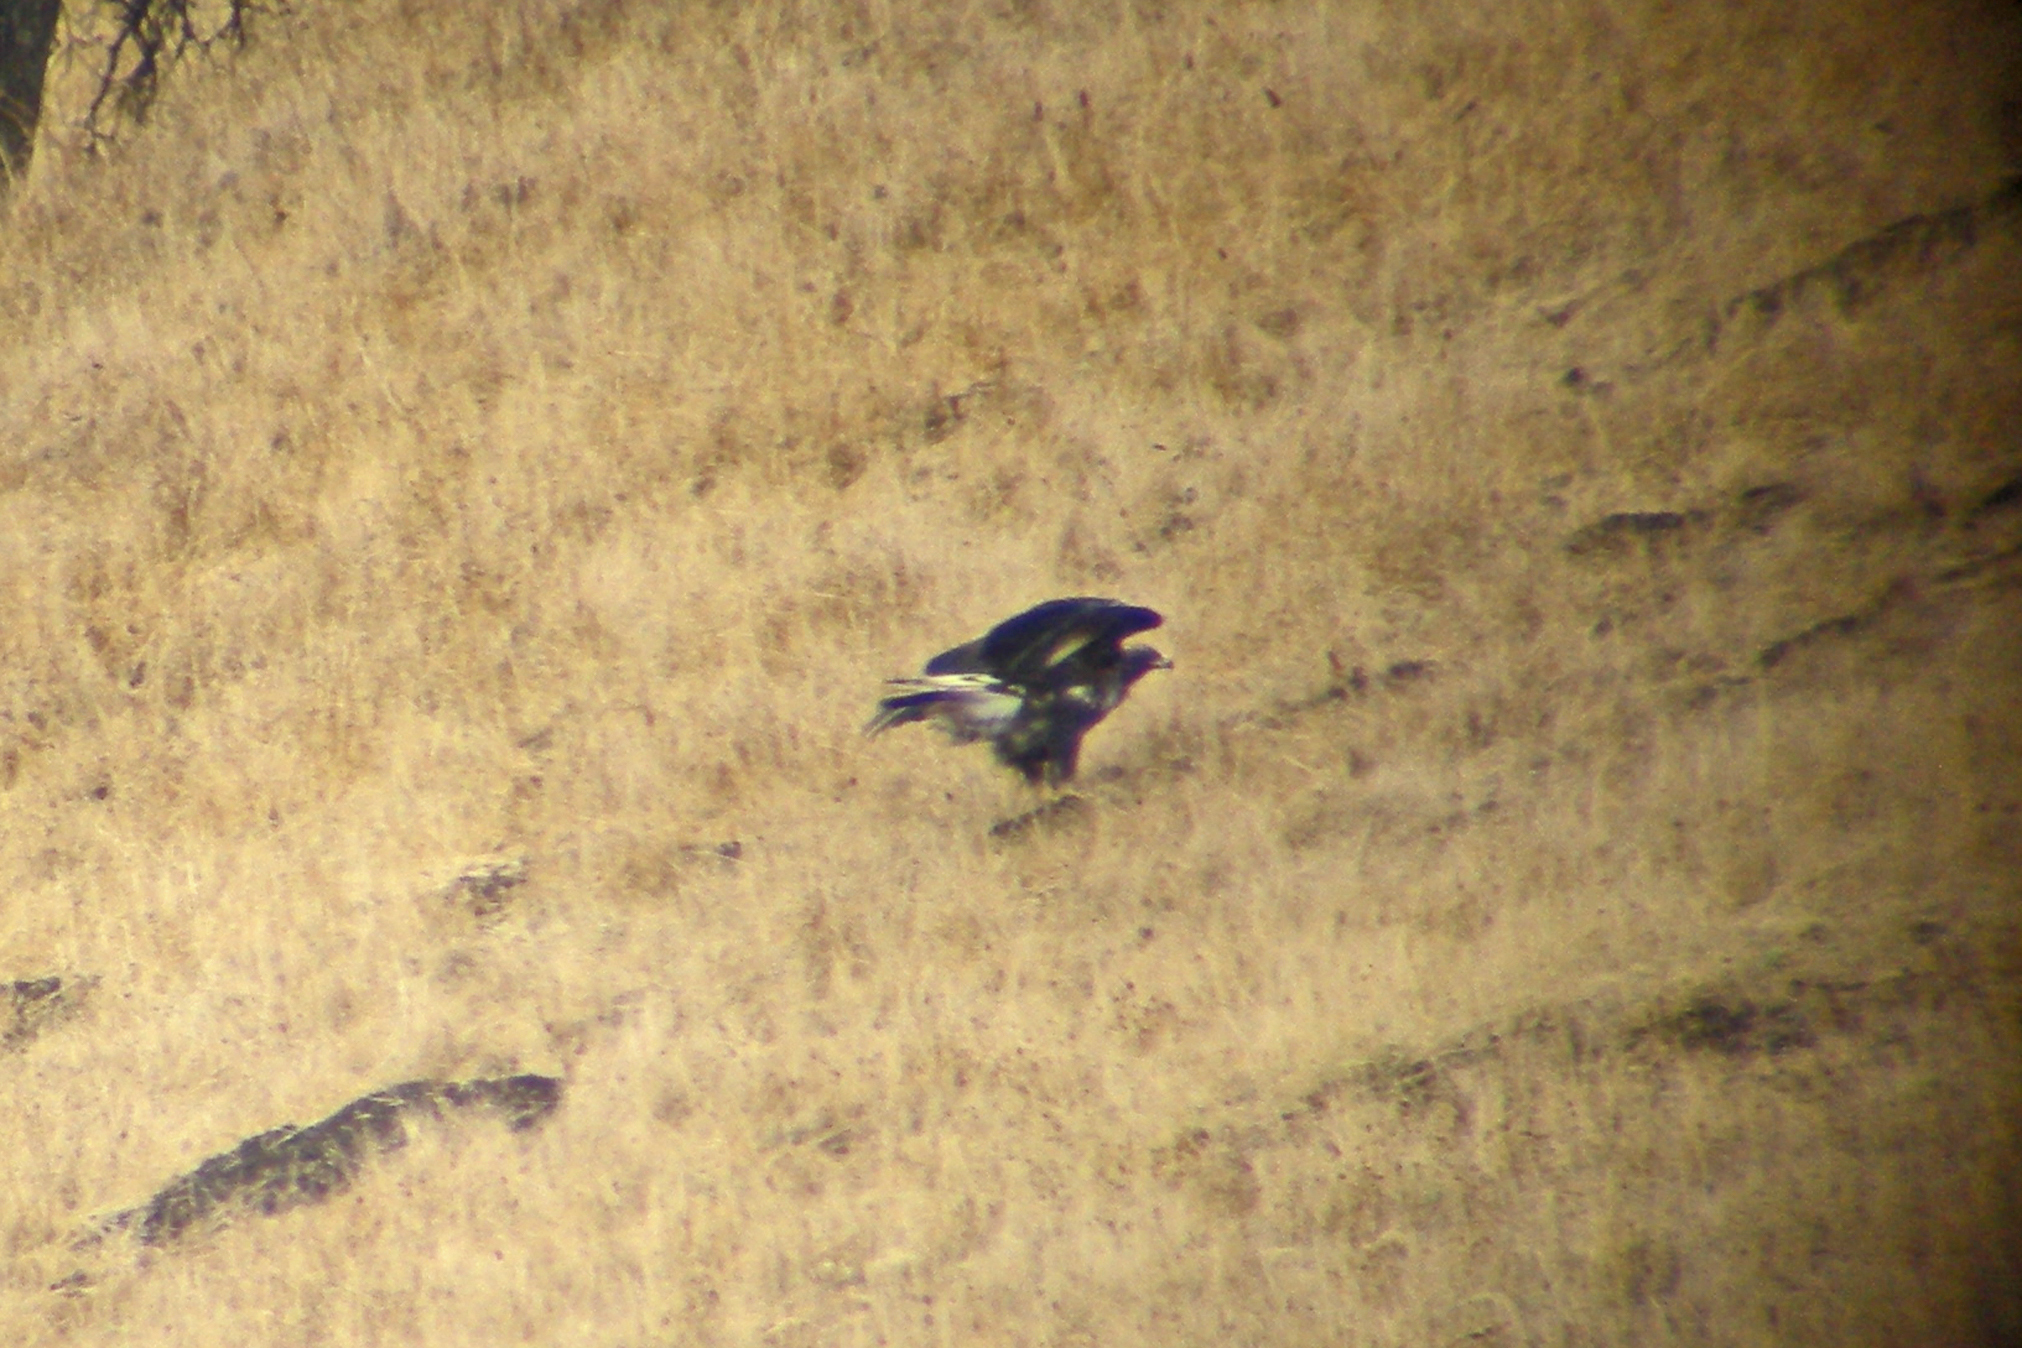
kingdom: Animalia
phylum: Chordata
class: Aves
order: Accipitriformes
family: Accipitridae
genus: Aquila
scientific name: Aquila chrysaetos
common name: Golden eagle
